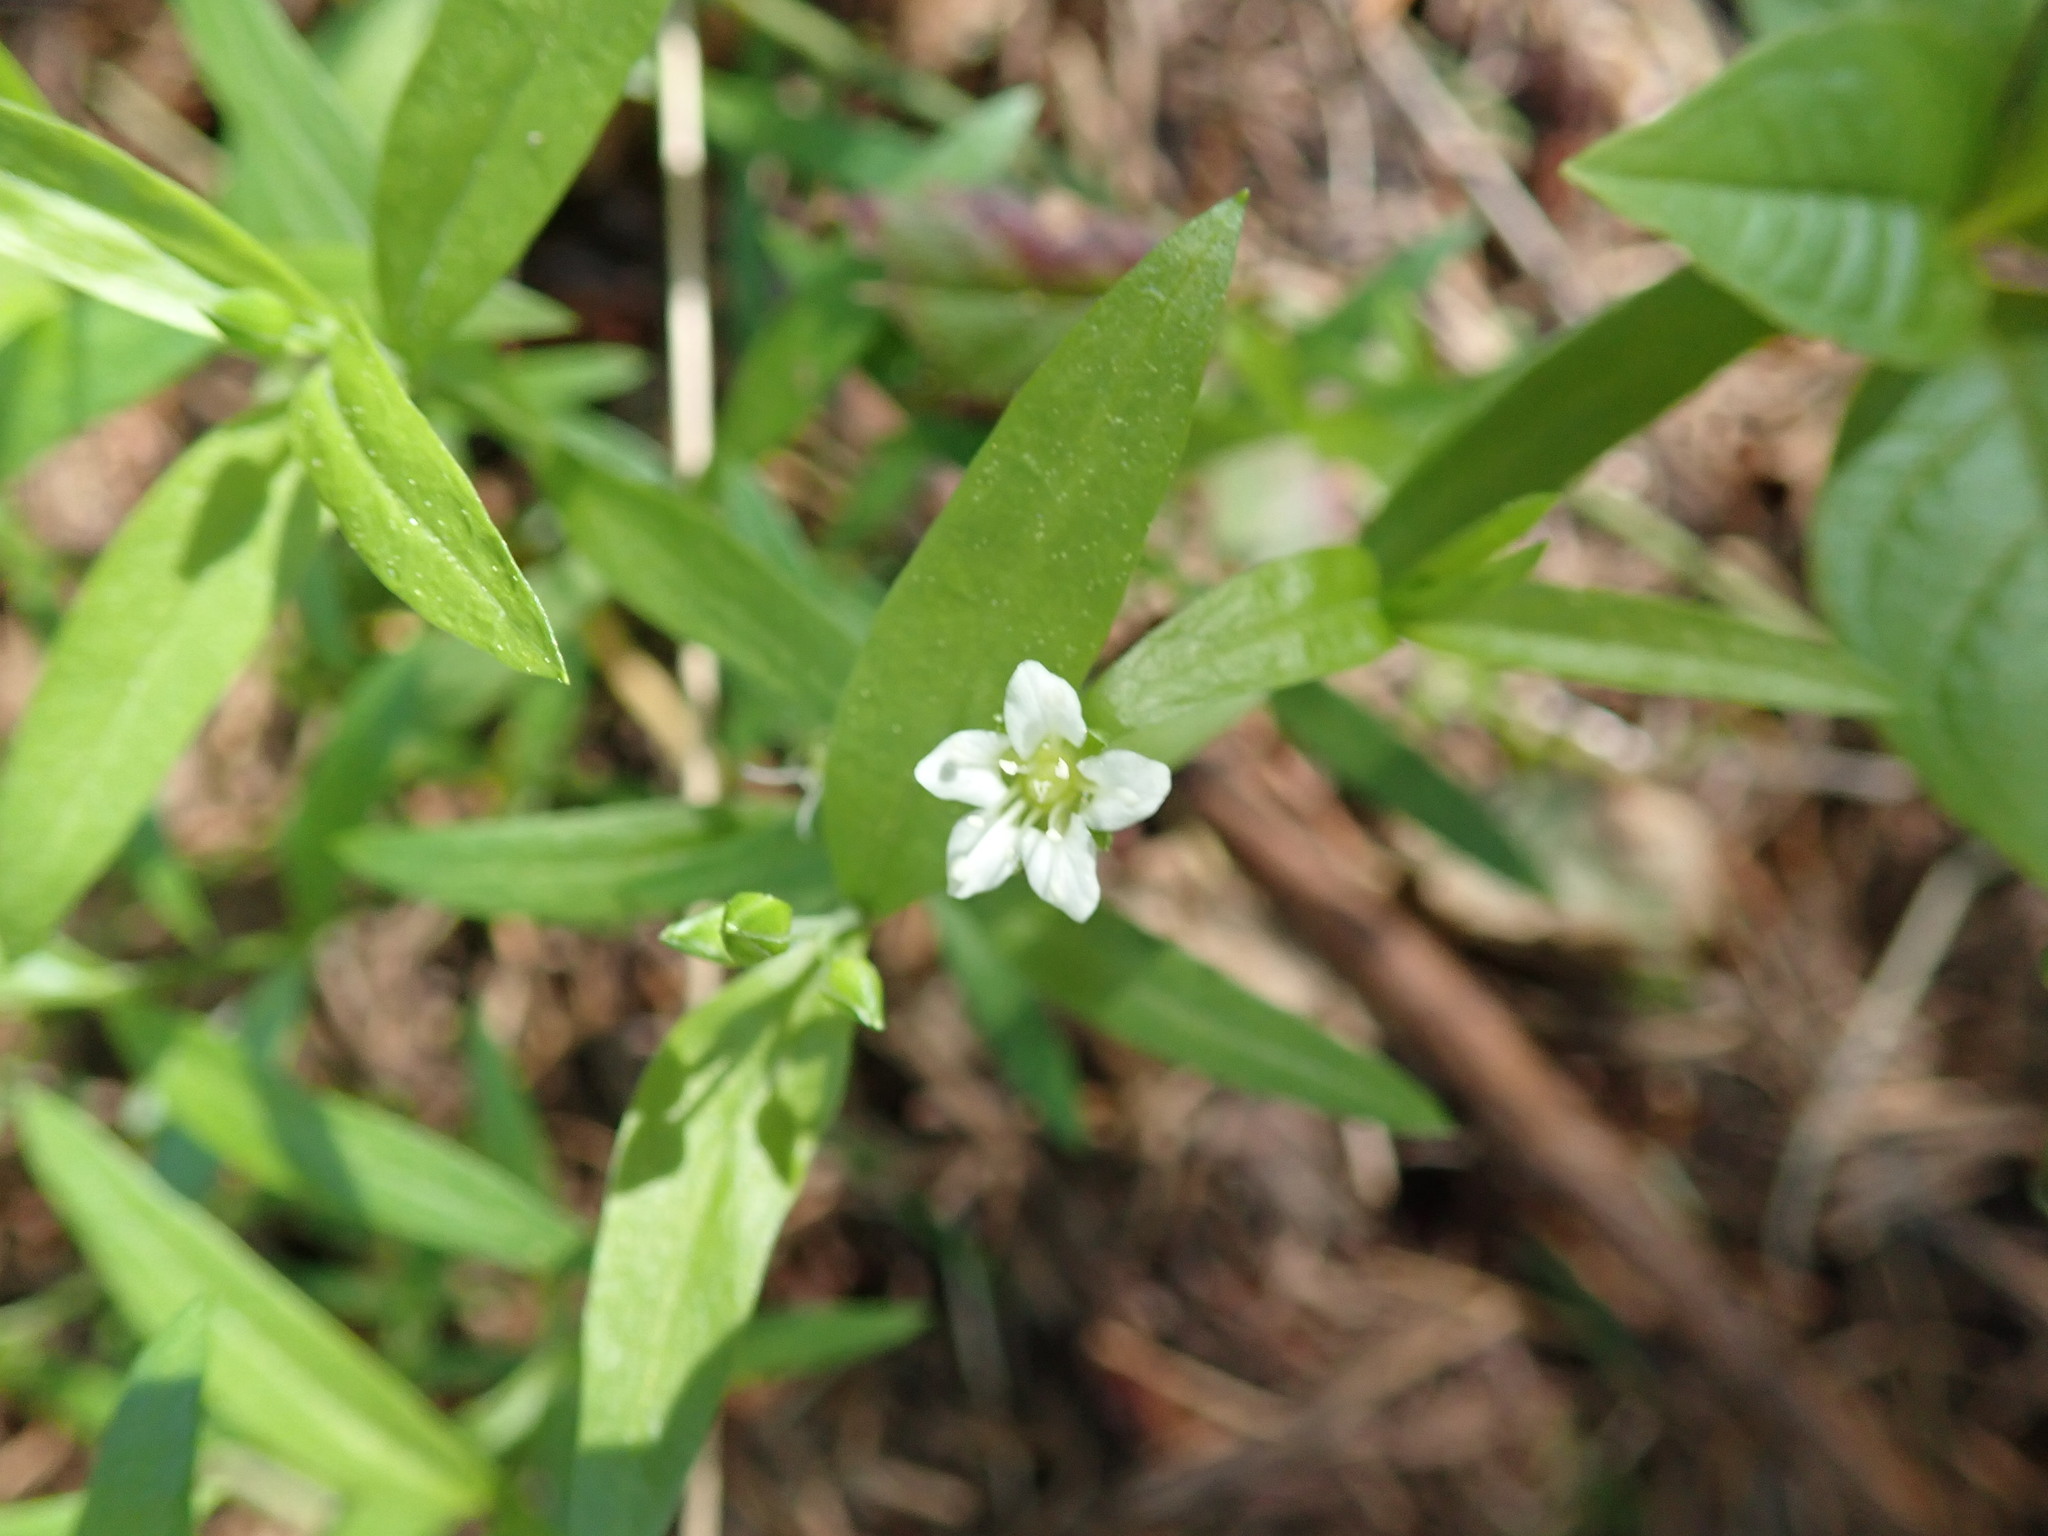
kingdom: Plantae
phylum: Tracheophyta
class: Magnoliopsida
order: Caryophyllales
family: Caryophyllaceae
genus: Moehringia
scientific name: Moehringia macrophylla
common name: Big-leaf sandwort
